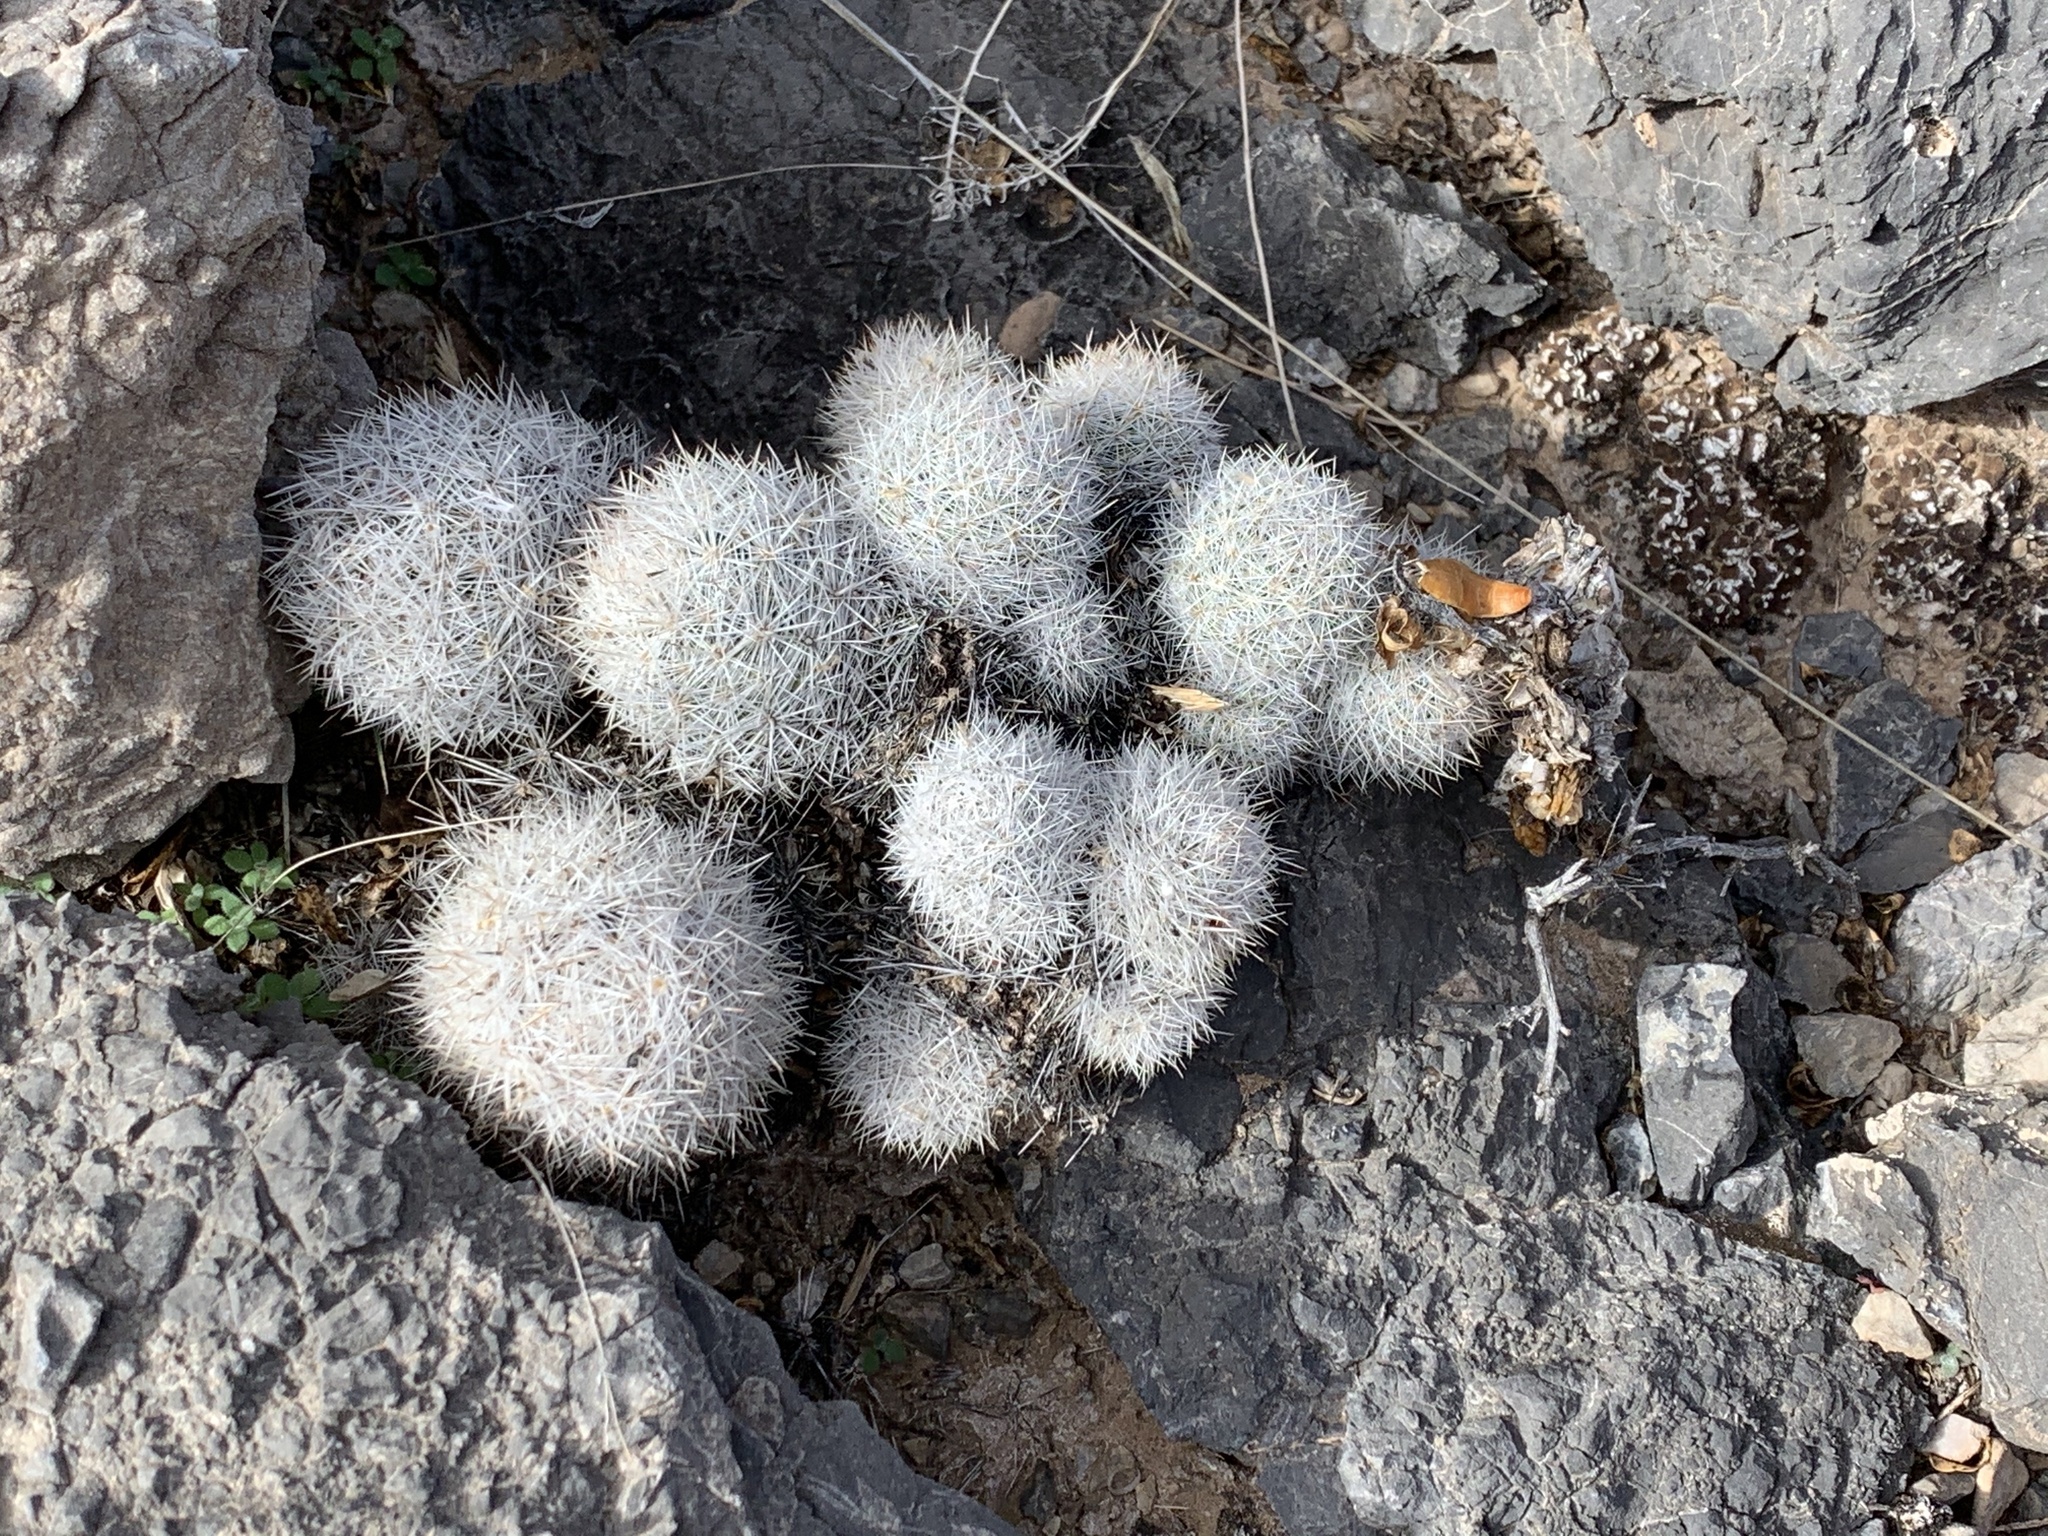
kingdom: Plantae
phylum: Tracheophyta
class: Magnoliopsida
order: Caryophyllales
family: Cactaceae
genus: Pelecyphora
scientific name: Pelecyphora sneedii
